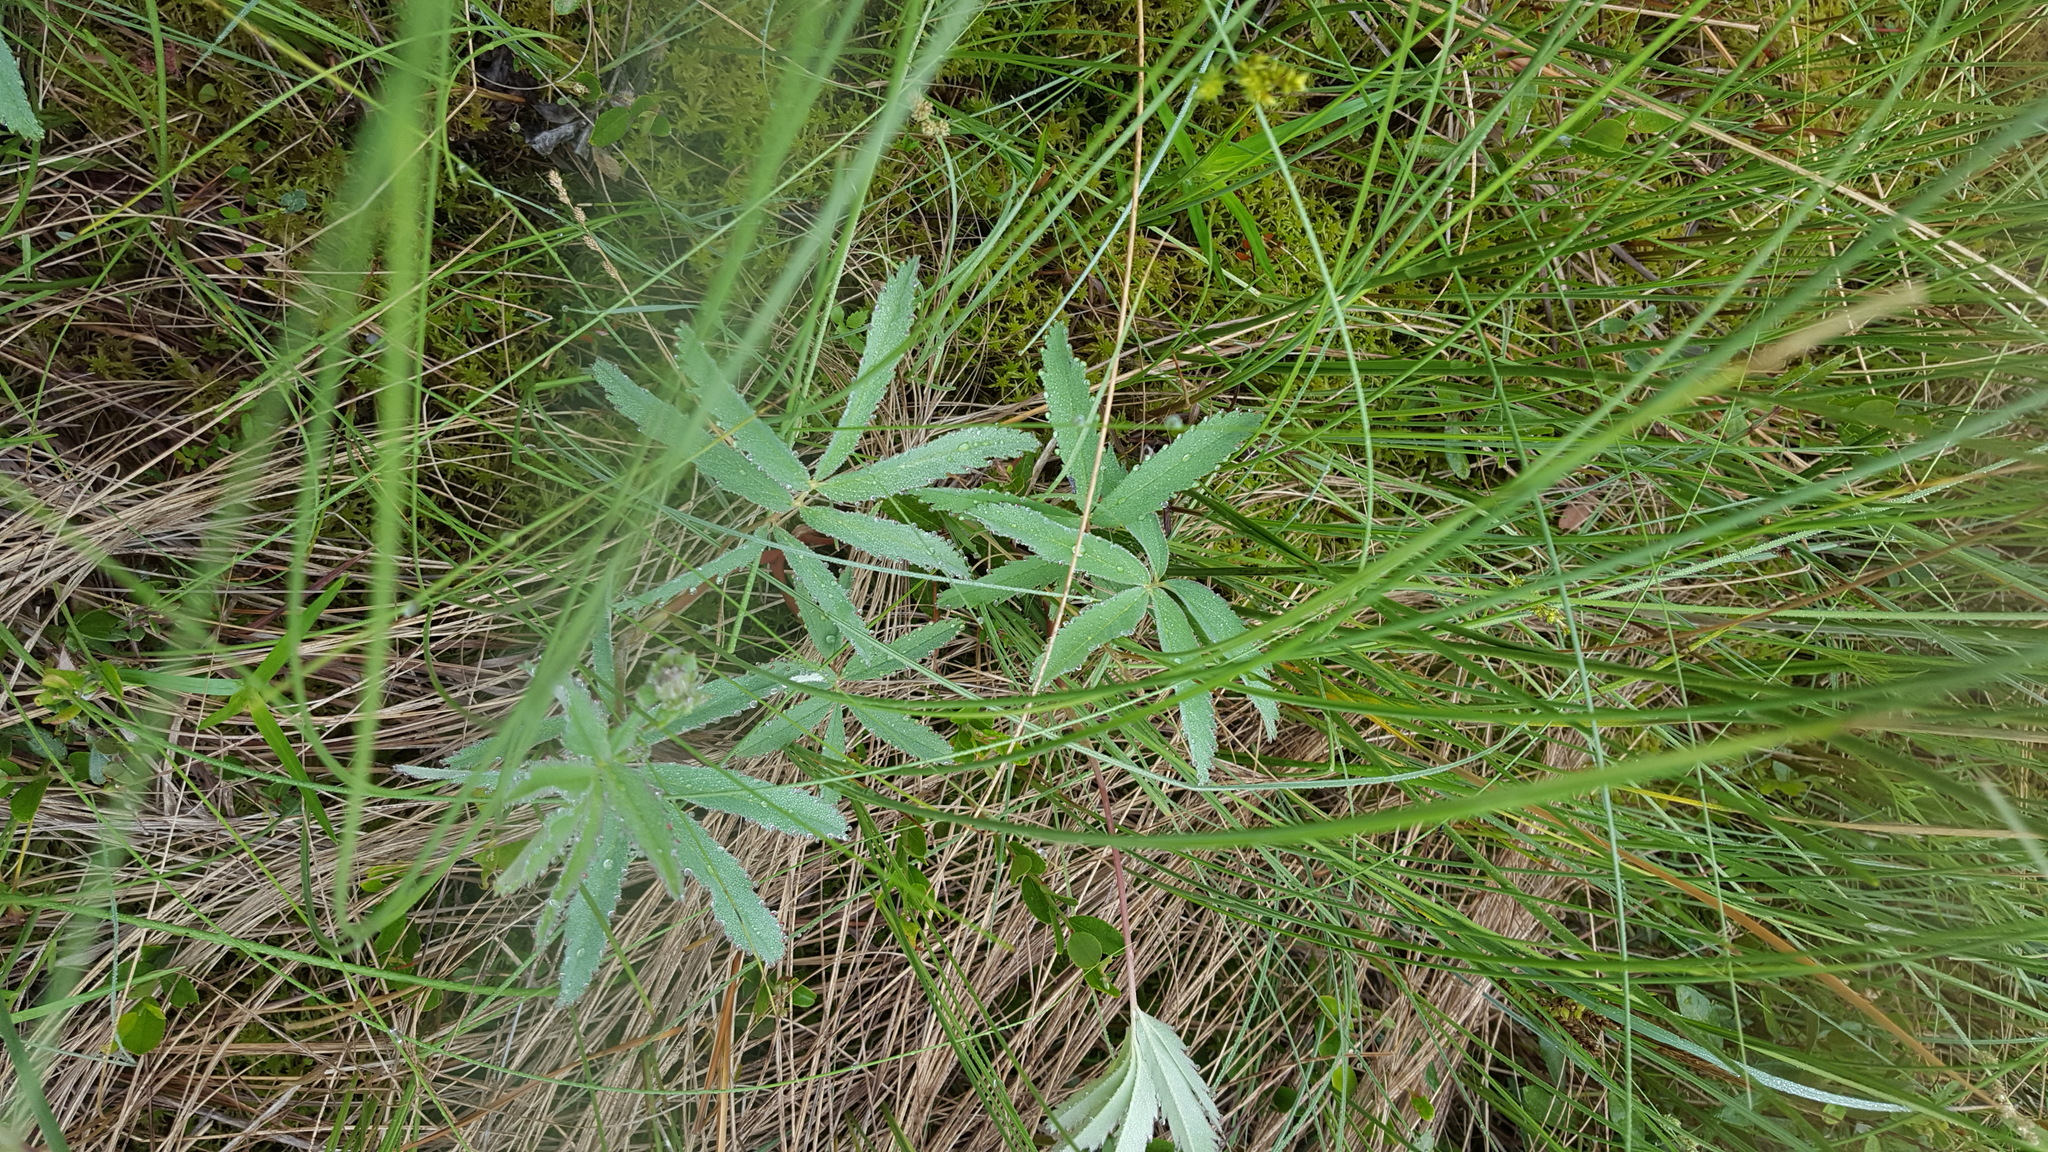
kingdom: Plantae
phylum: Tracheophyta
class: Magnoliopsida
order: Rosales
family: Rosaceae
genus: Comarum
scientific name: Comarum palustre
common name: Marsh cinquefoil
